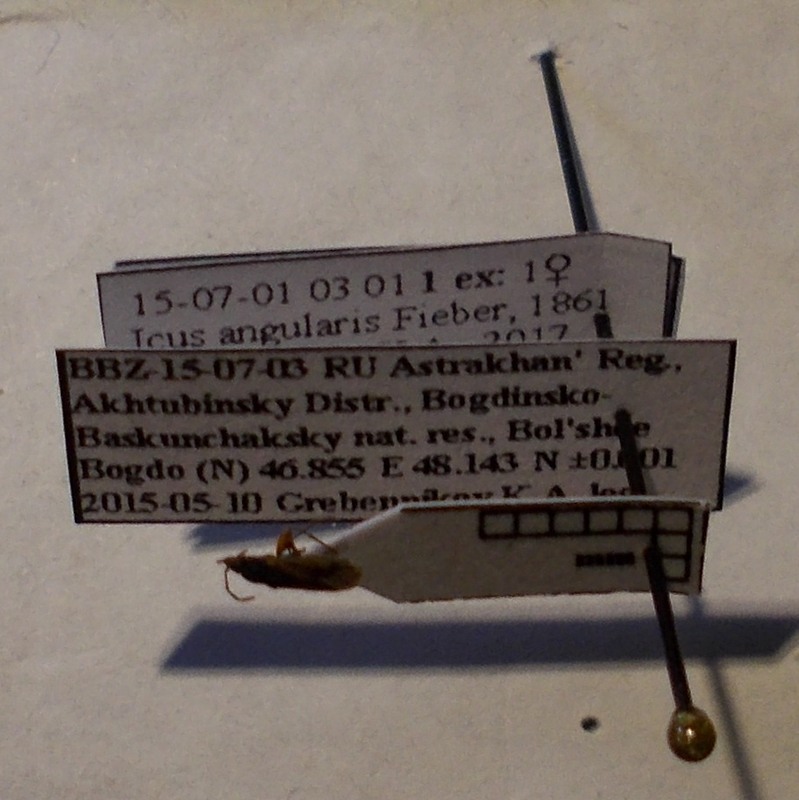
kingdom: Animalia
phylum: Arthropoda
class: Insecta
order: Hemiptera
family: Rhyparochromidae
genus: Icus
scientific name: Icus angularis
